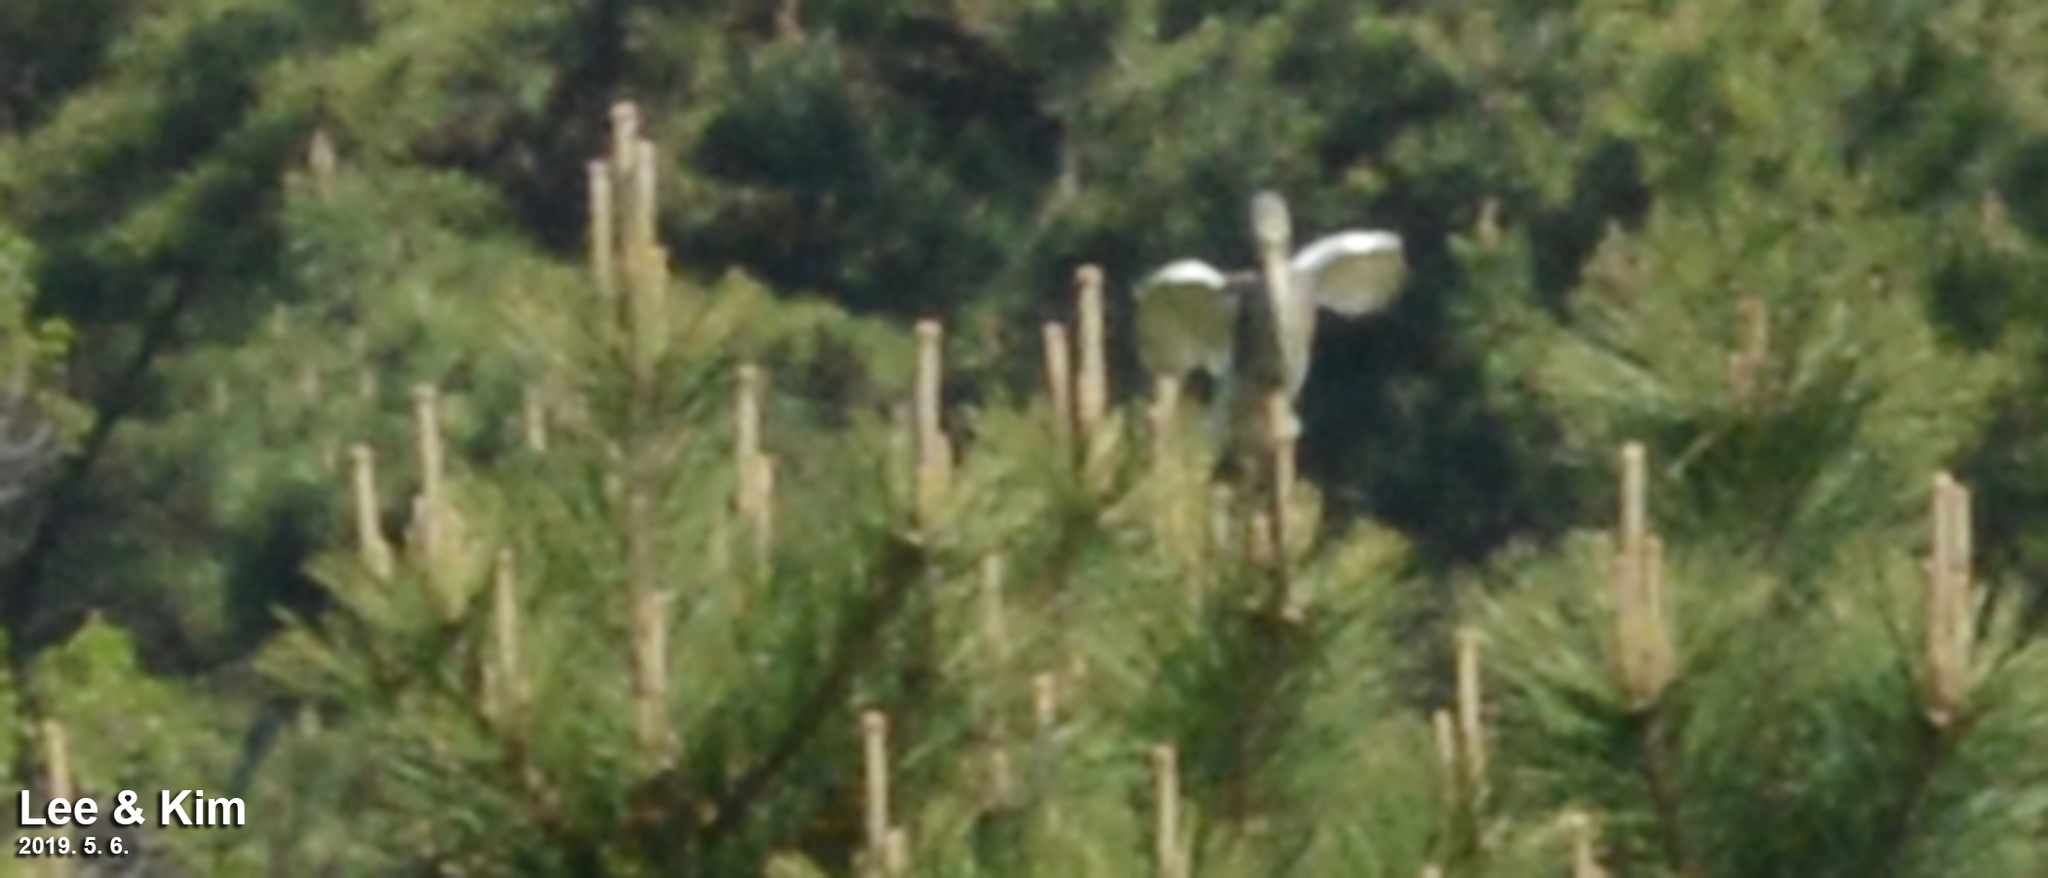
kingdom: Animalia
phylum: Chordata
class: Aves
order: Pelecaniformes
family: Ardeidae
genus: Ardeola
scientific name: Ardeola bacchus
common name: Chinese pond heron
